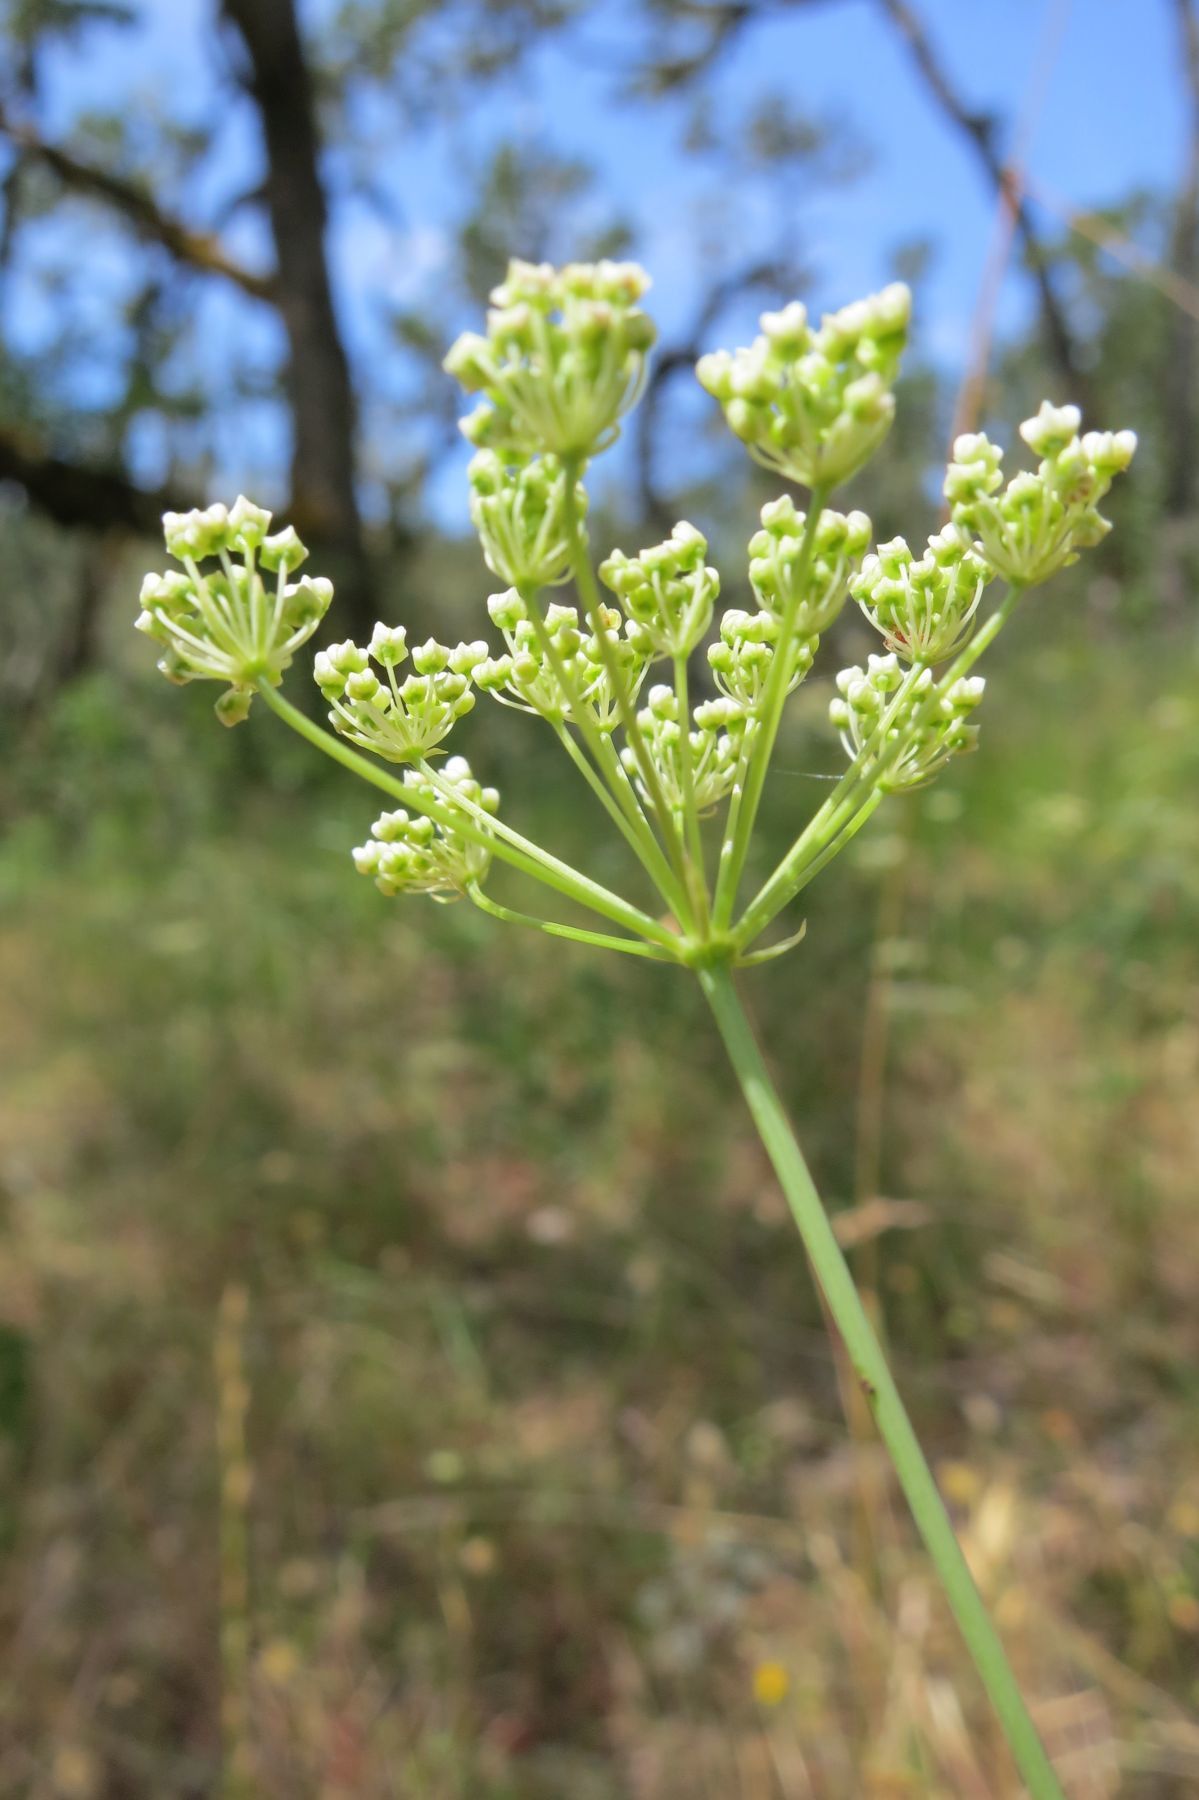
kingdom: Plantae
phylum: Tracheophyta
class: Magnoliopsida
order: Apiales
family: Apiaceae
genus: Perideridia
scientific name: Perideridia oregana
